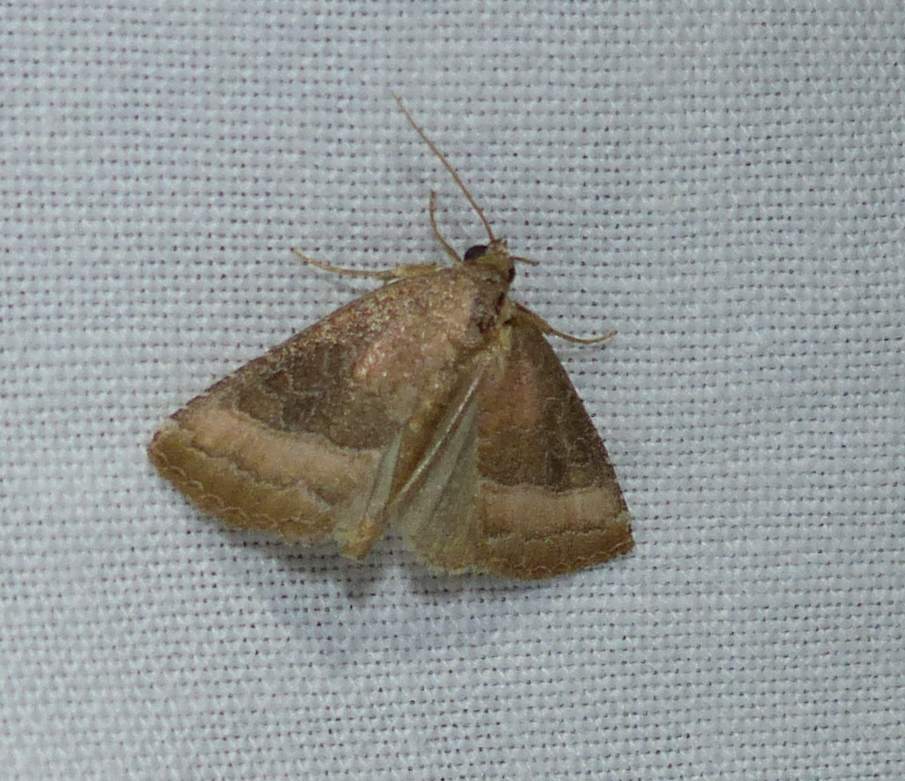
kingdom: Animalia
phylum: Arthropoda
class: Insecta
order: Lepidoptera
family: Noctuidae
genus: Ogdoconta
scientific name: Ogdoconta cinereola
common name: Common pinkband
